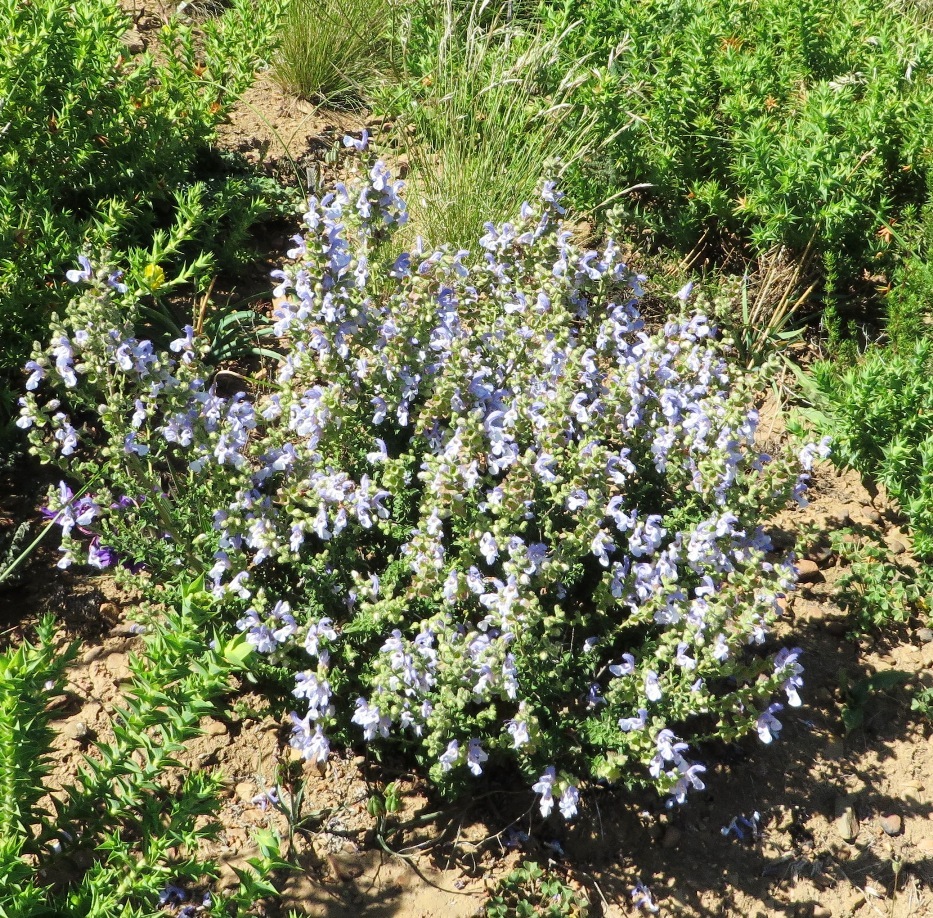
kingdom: Plantae
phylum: Tracheophyta
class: Magnoliopsida
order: Lamiales
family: Lamiaceae
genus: Salvia
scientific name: Salvia chamelaeagnea
